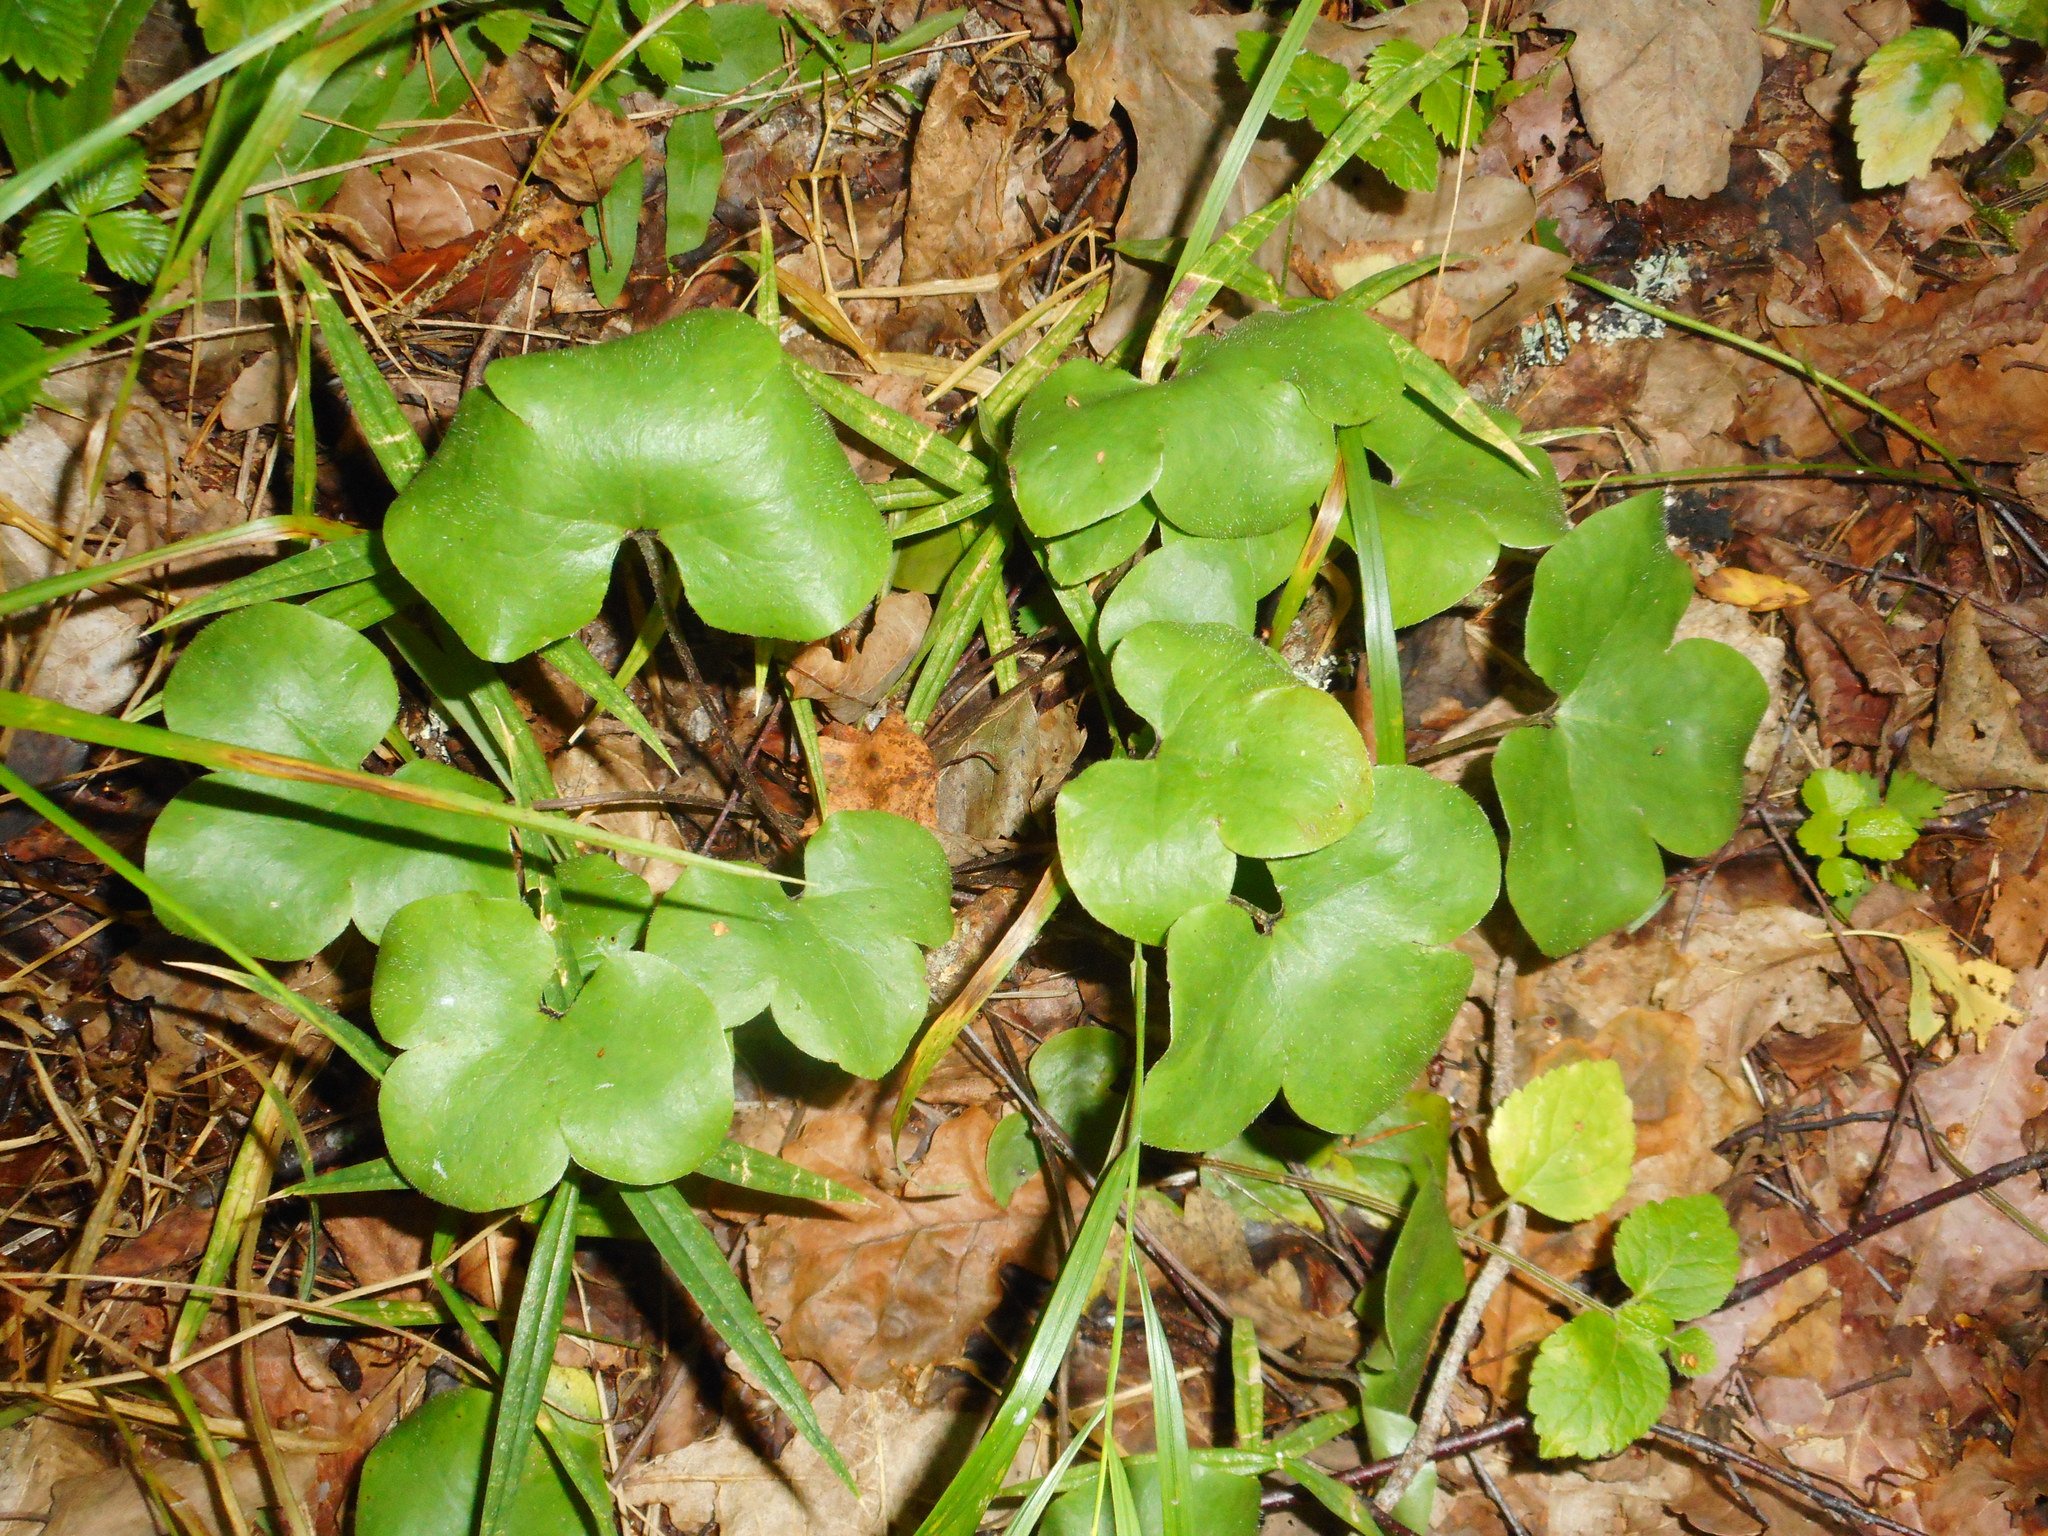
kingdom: Plantae
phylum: Tracheophyta
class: Magnoliopsida
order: Ranunculales
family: Ranunculaceae
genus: Hepatica
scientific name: Hepatica nobilis
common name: Liverleaf
